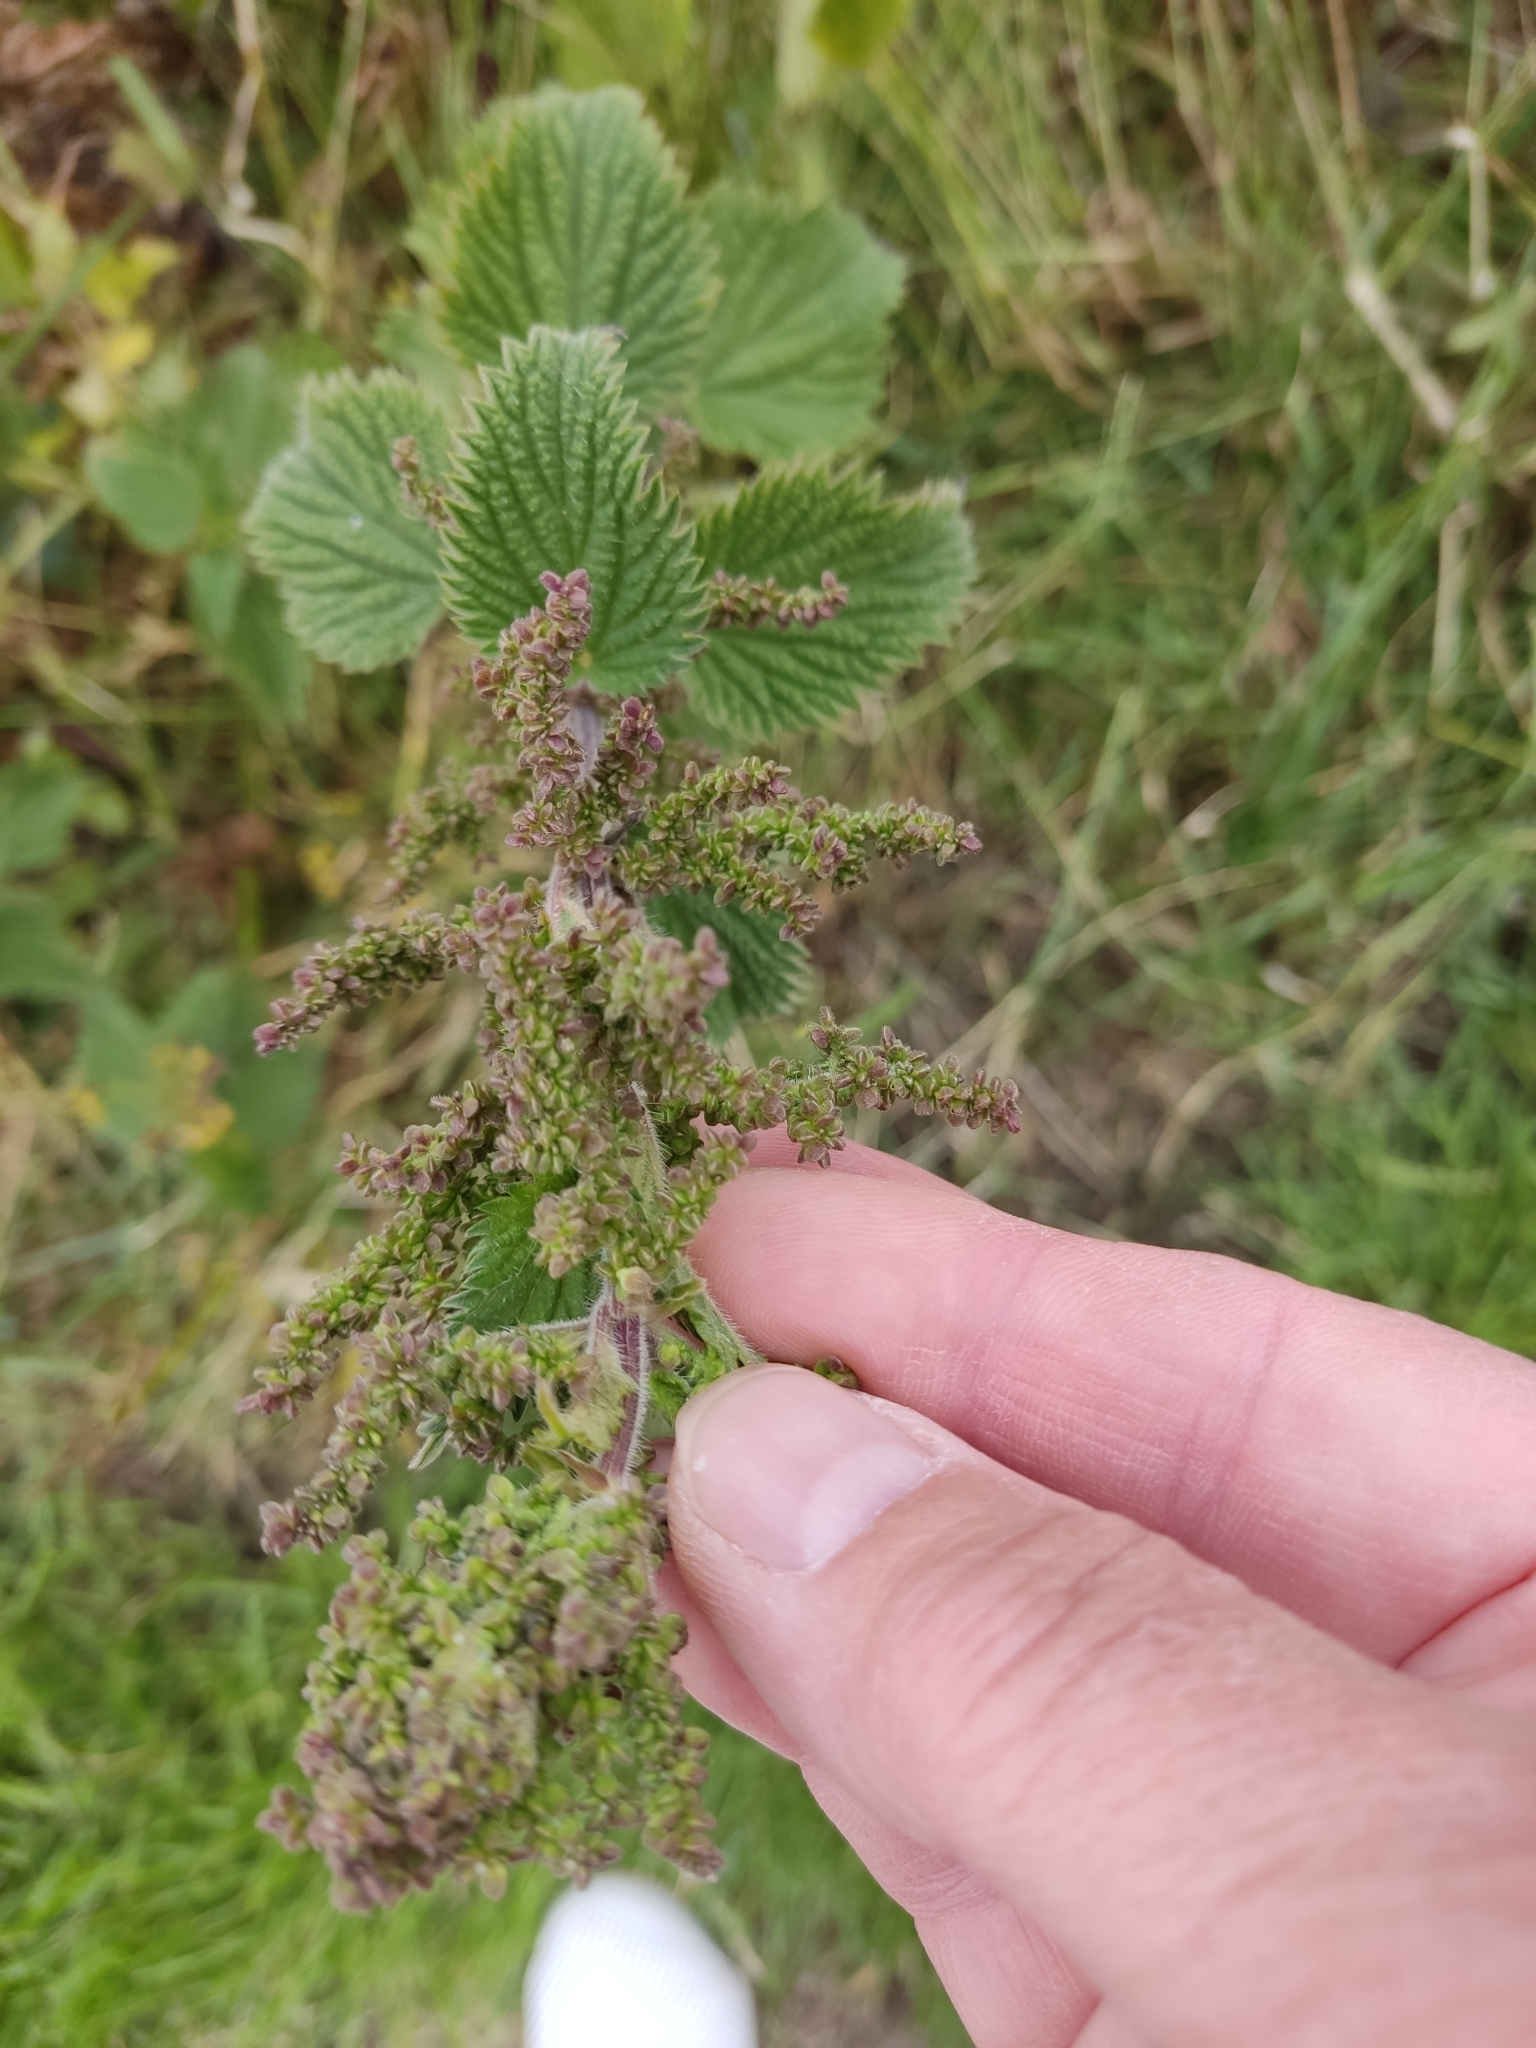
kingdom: Plantae
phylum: Tracheophyta
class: Magnoliopsida
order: Rosales
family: Urticaceae
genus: Urtica
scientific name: Urtica dioica
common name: Common nettle
